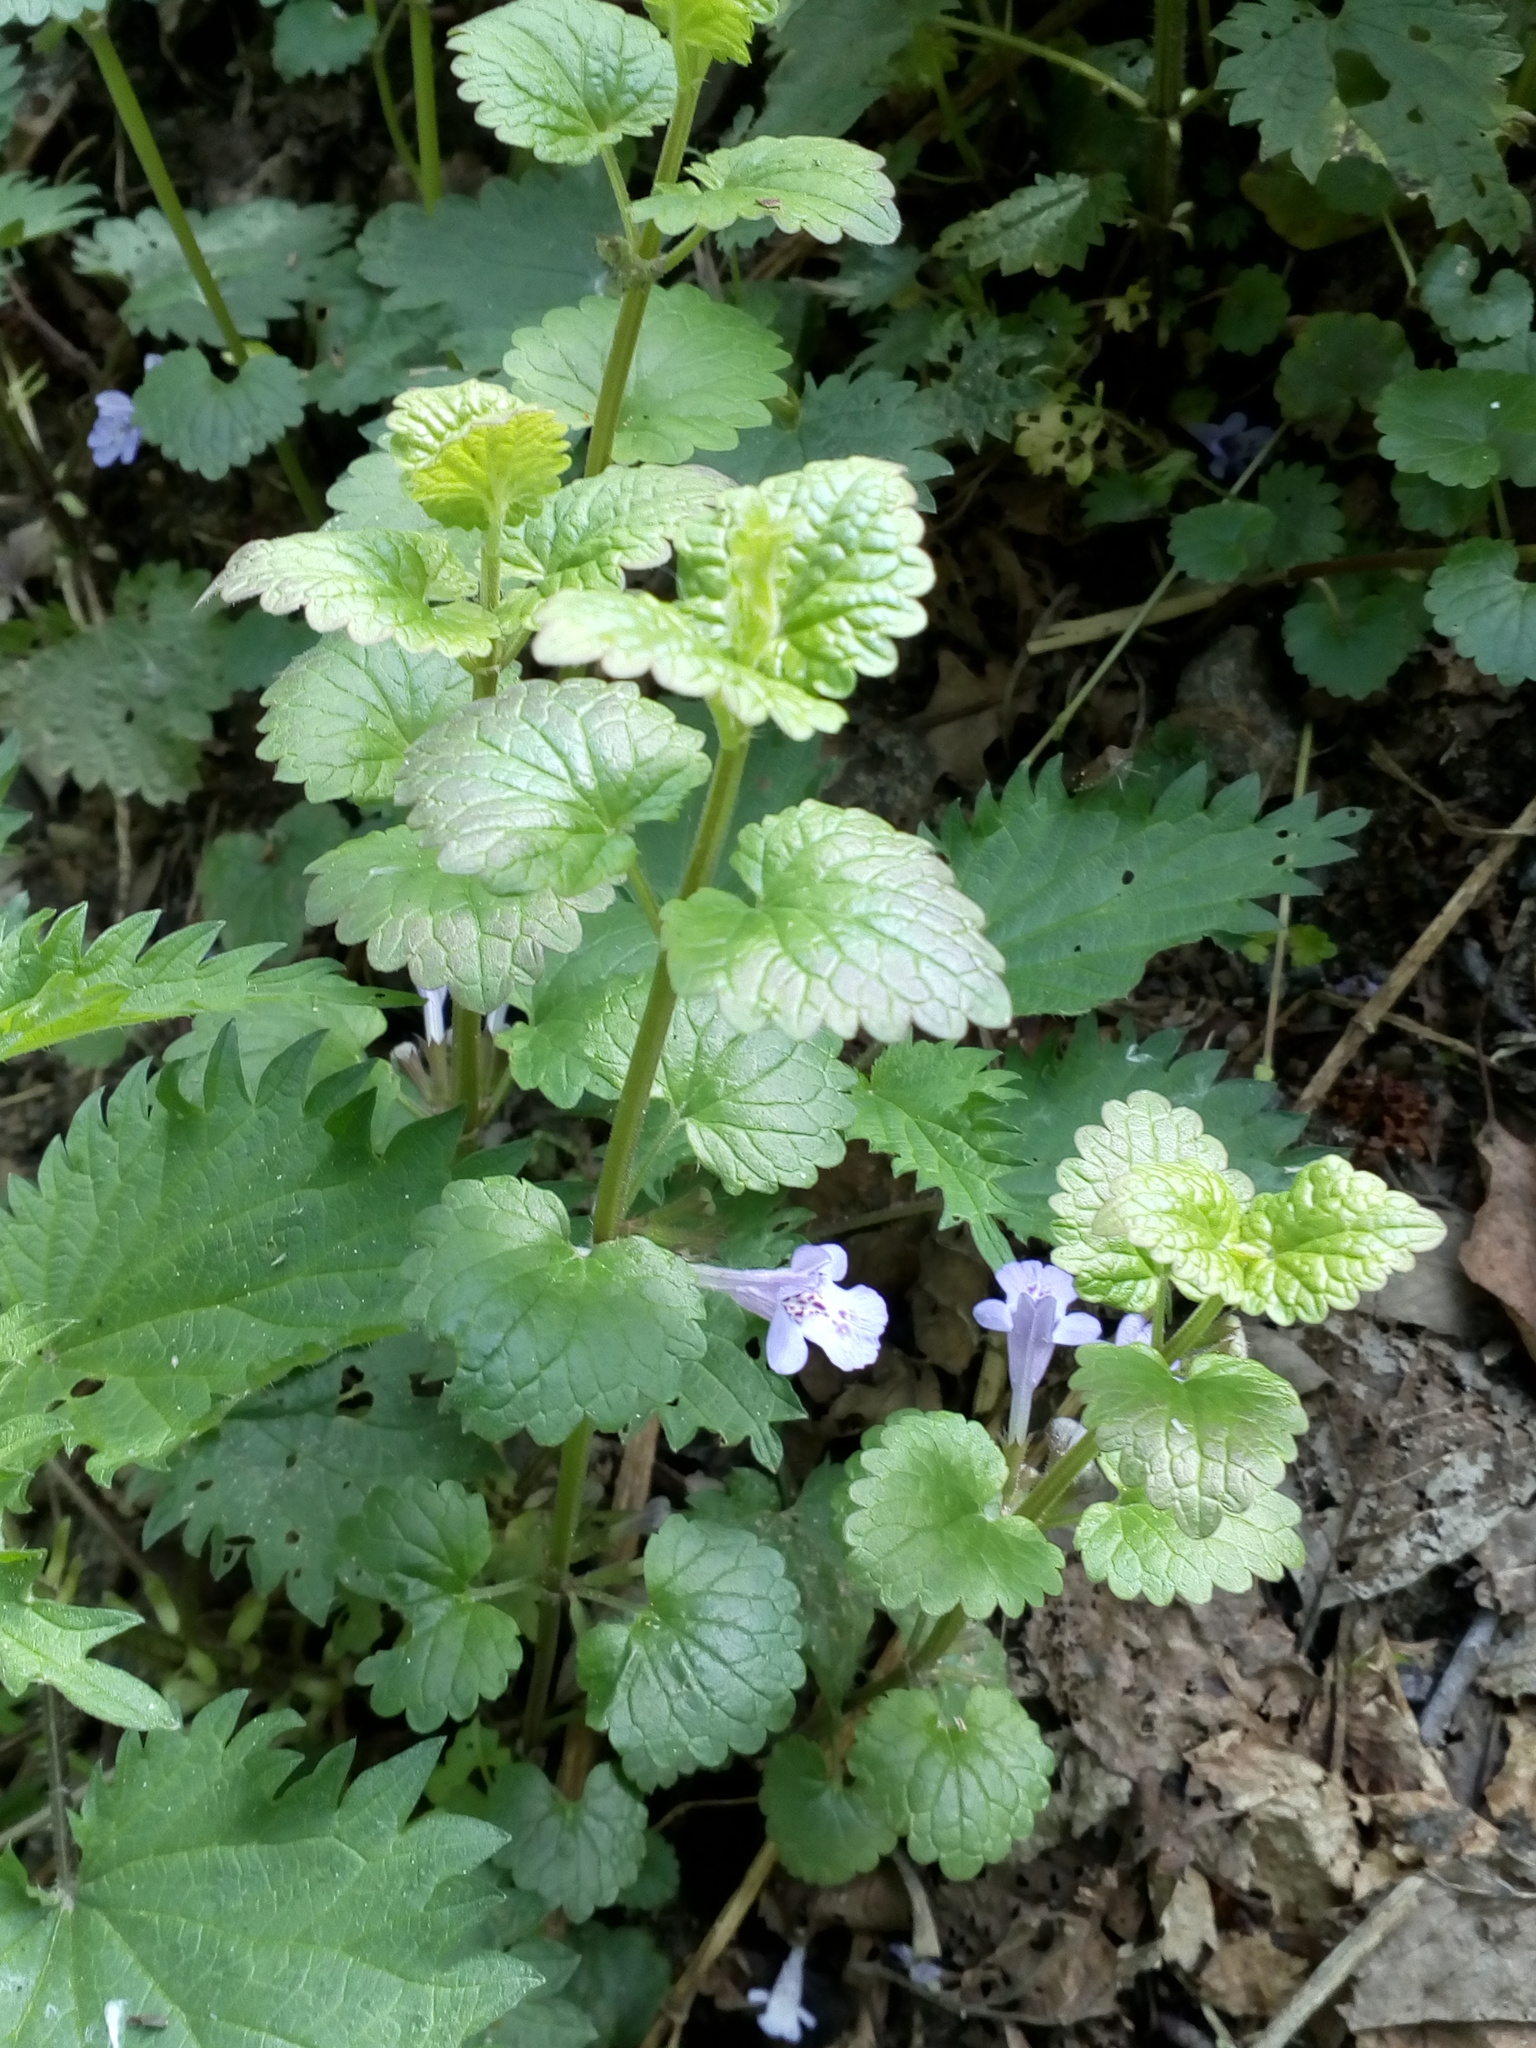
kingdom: Plantae
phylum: Tracheophyta
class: Magnoliopsida
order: Lamiales
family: Lamiaceae
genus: Glechoma
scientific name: Glechoma hederacea
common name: Ground ivy
